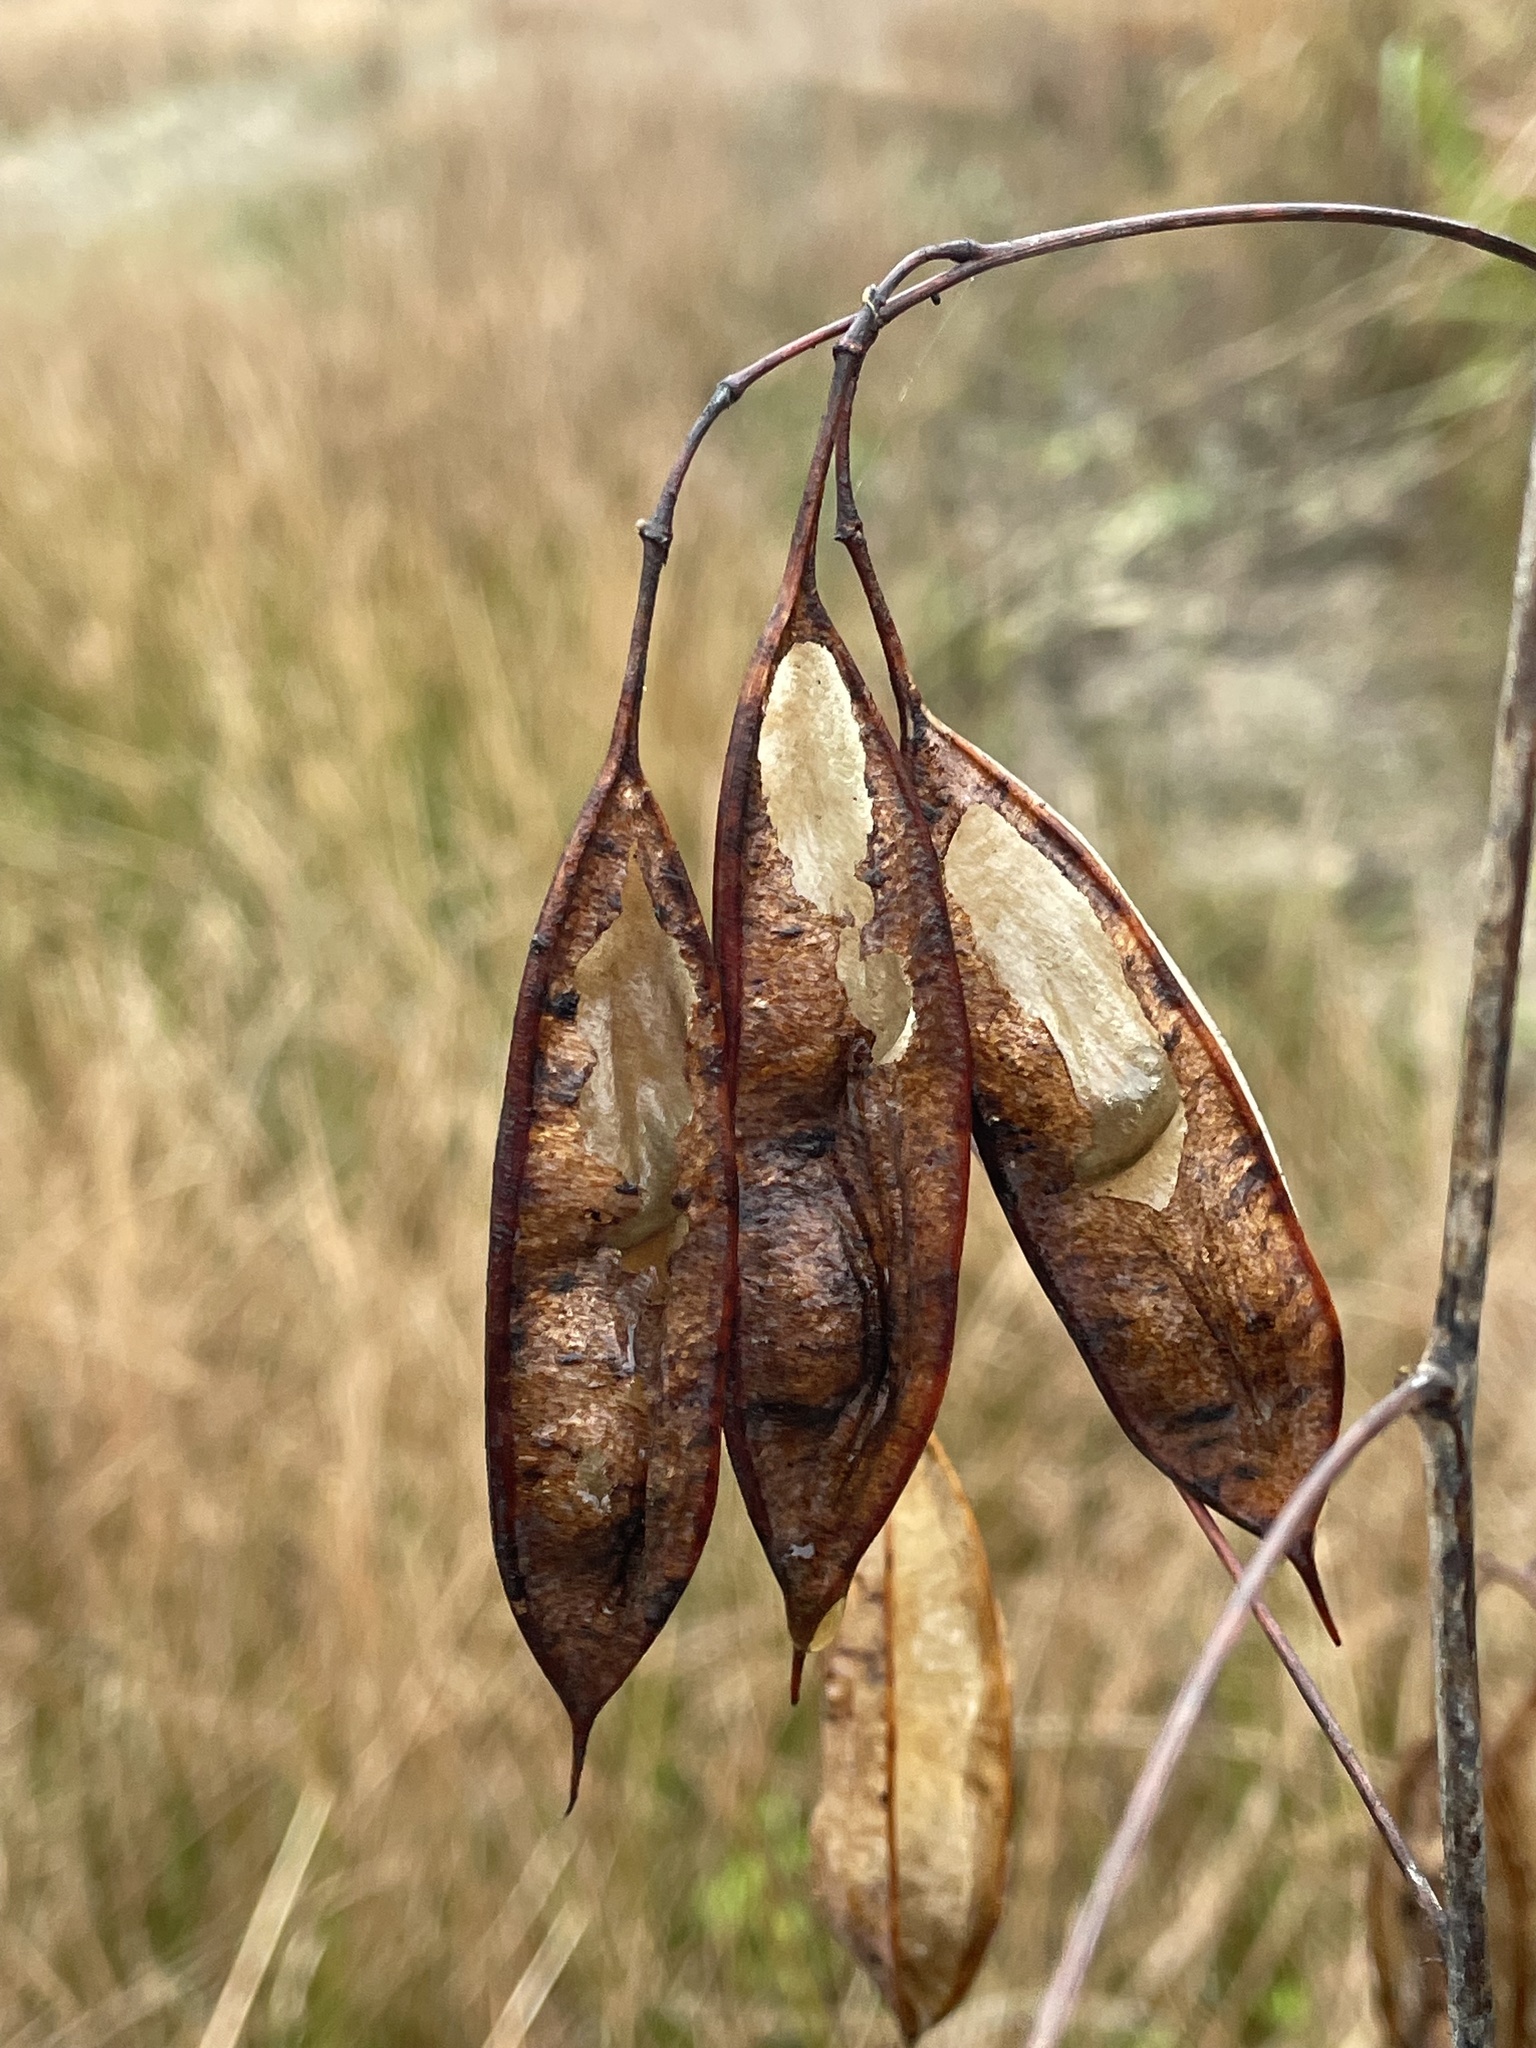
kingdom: Plantae
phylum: Tracheophyta
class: Magnoliopsida
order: Fabales
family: Fabaceae
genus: Sesbania
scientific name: Sesbania vesicaria
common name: Bagpod
